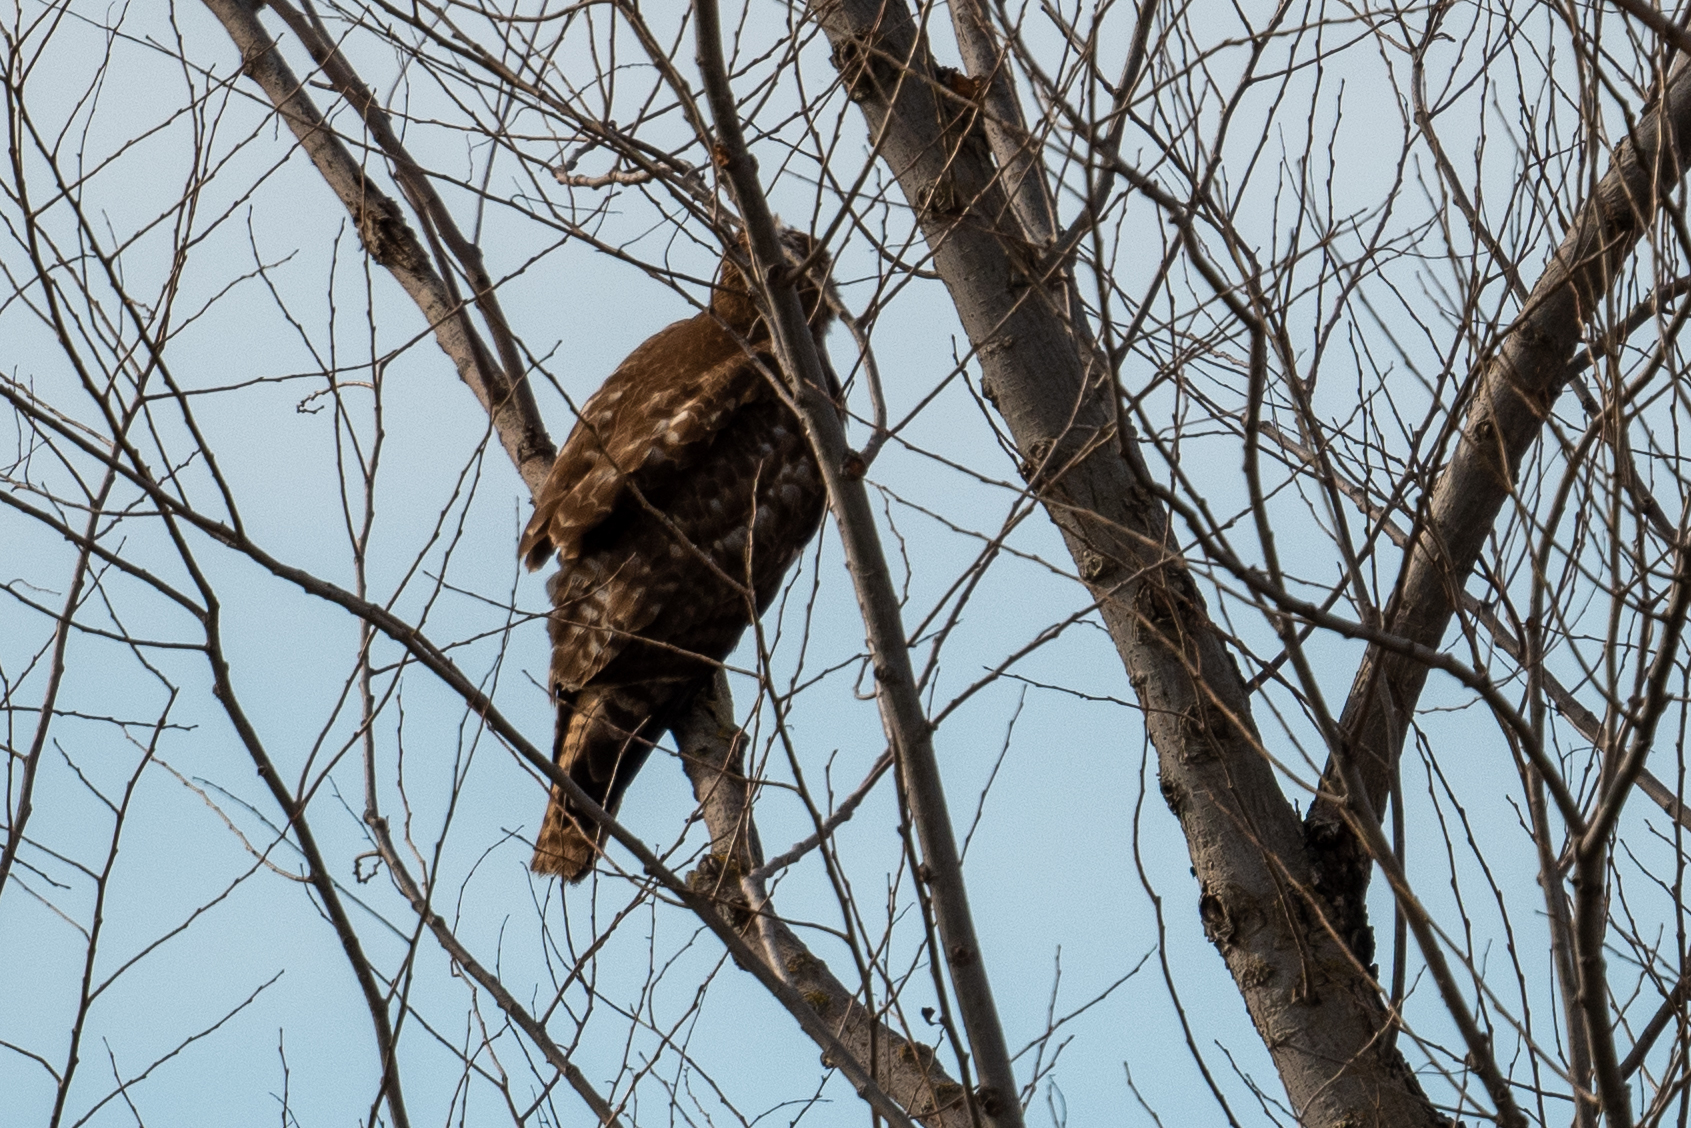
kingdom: Animalia
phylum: Chordata
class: Aves
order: Accipitriformes
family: Accipitridae
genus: Buteo
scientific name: Buteo jamaicensis
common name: Red-tailed hawk
